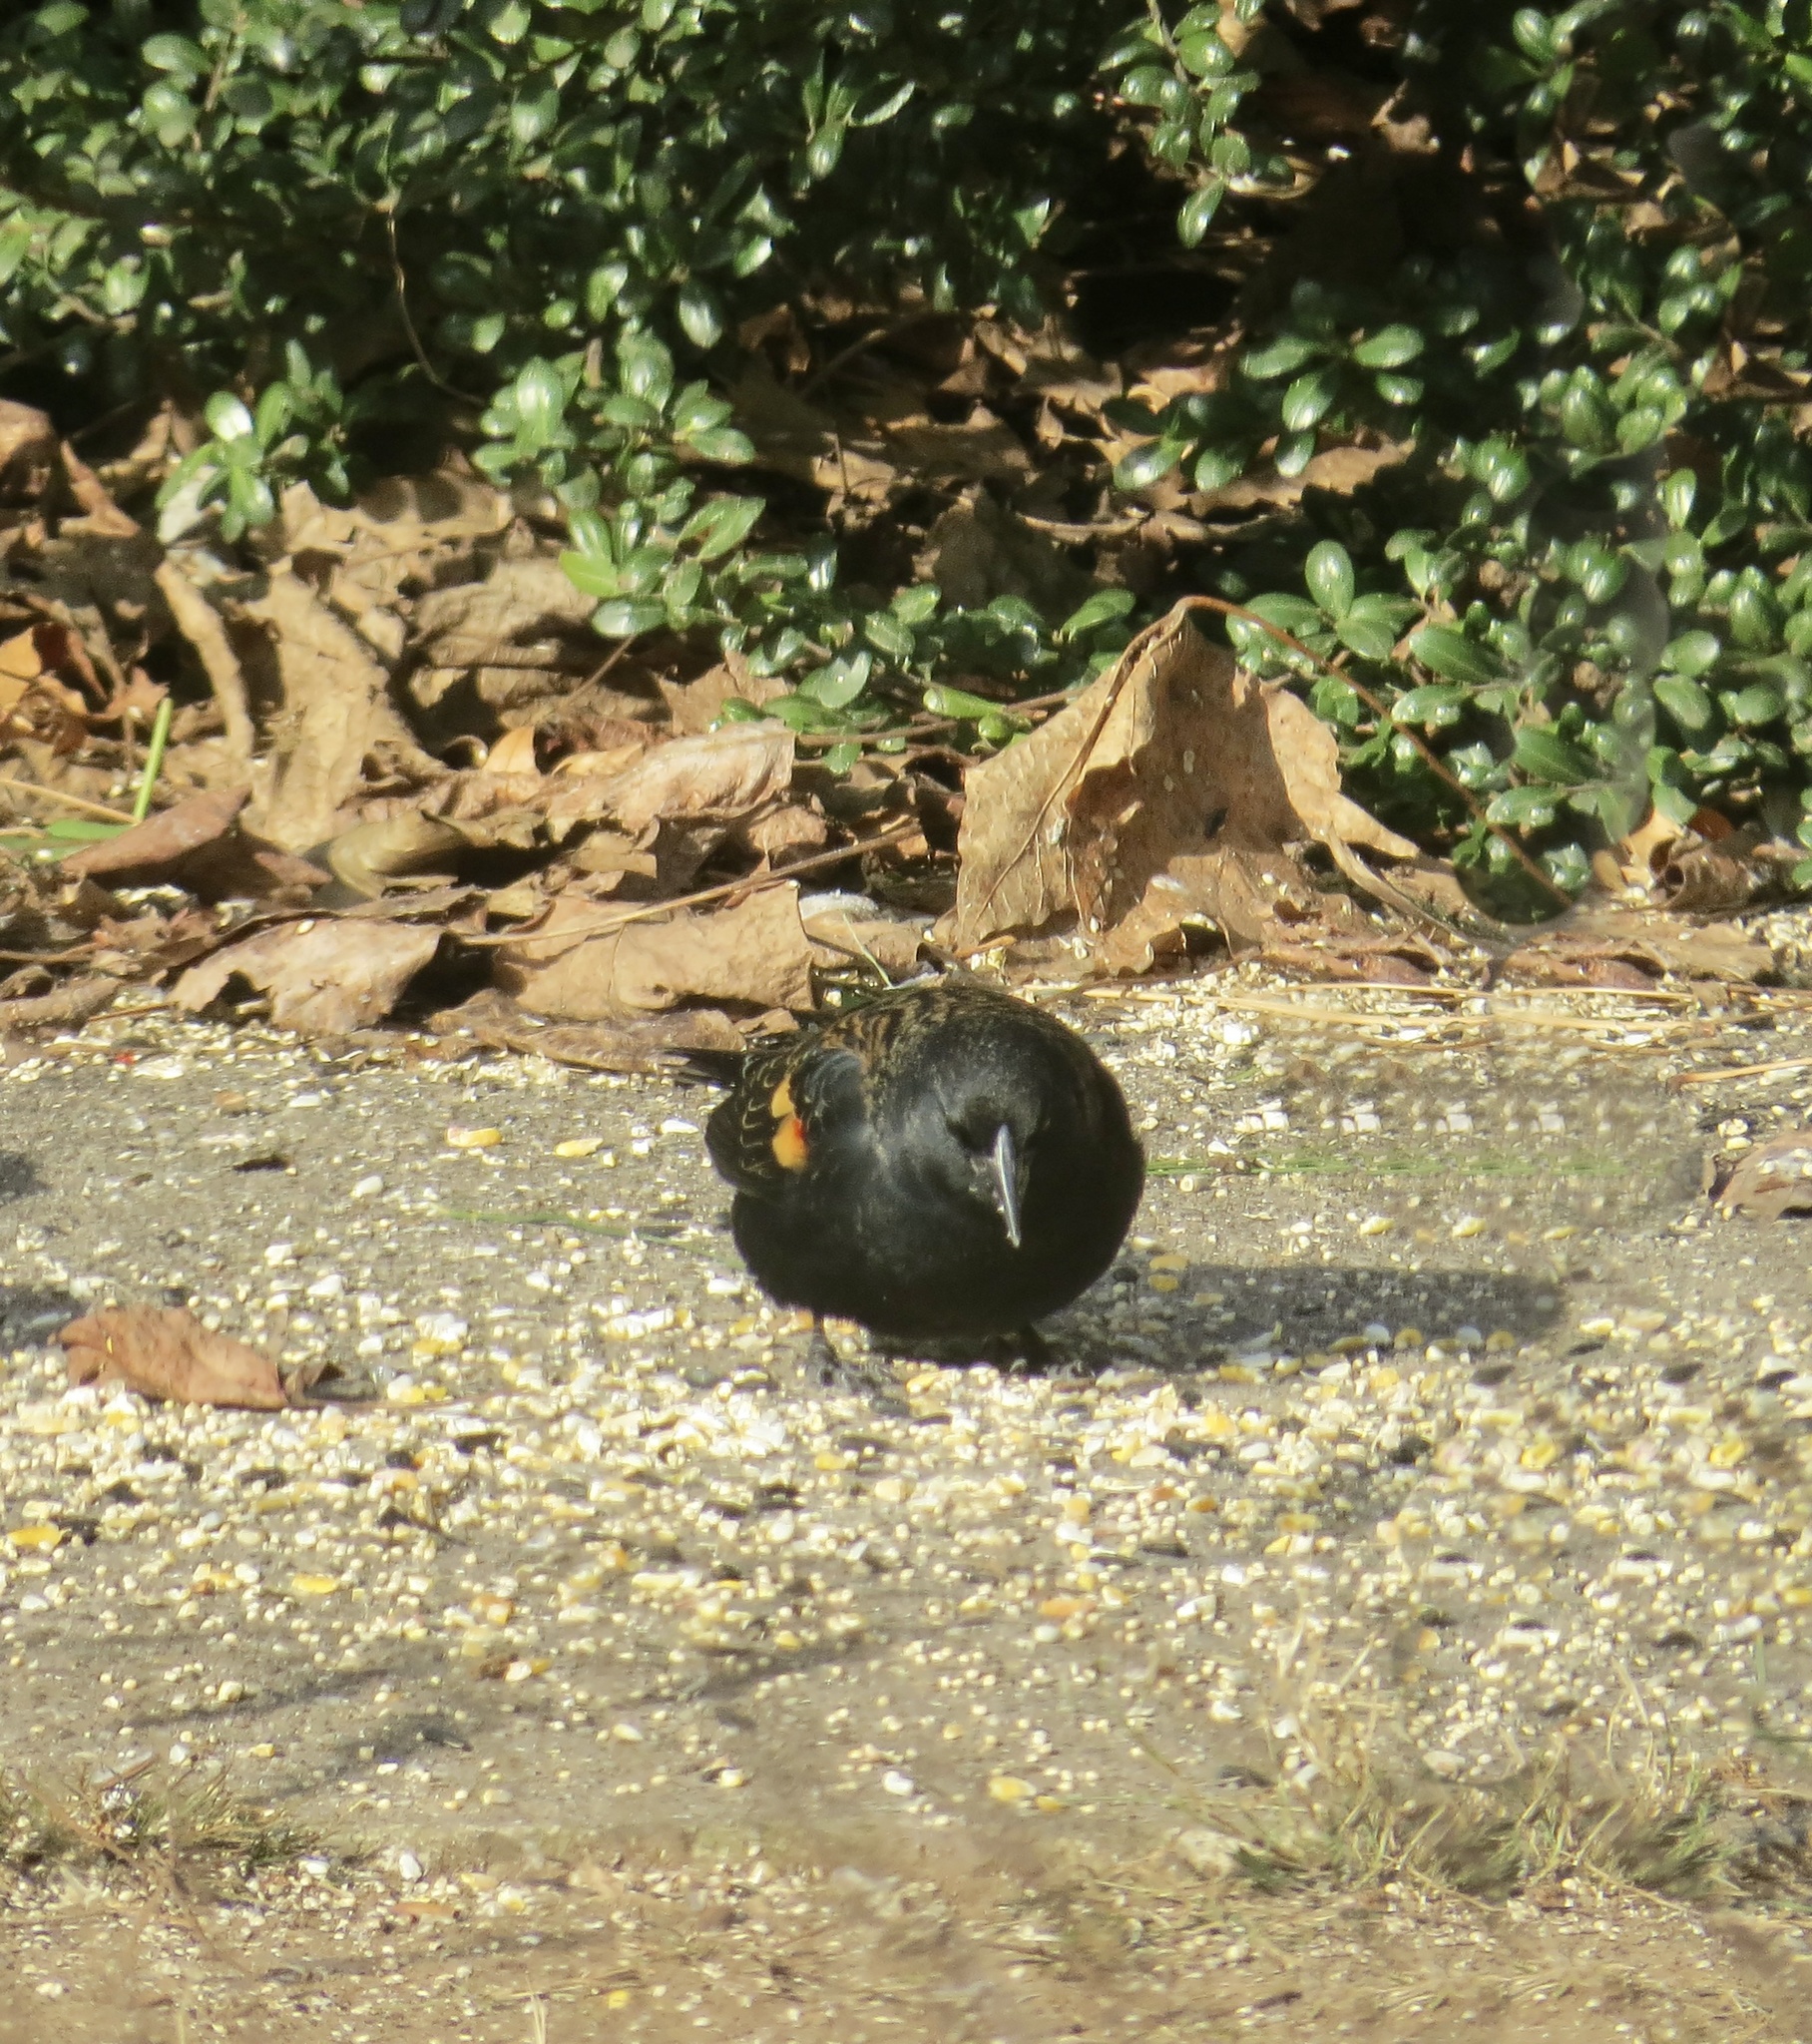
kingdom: Animalia
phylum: Chordata
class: Aves
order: Passeriformes
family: Icteridae
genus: Agelaius
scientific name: Agelaius phoeniceus
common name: Red-winged blackbird
